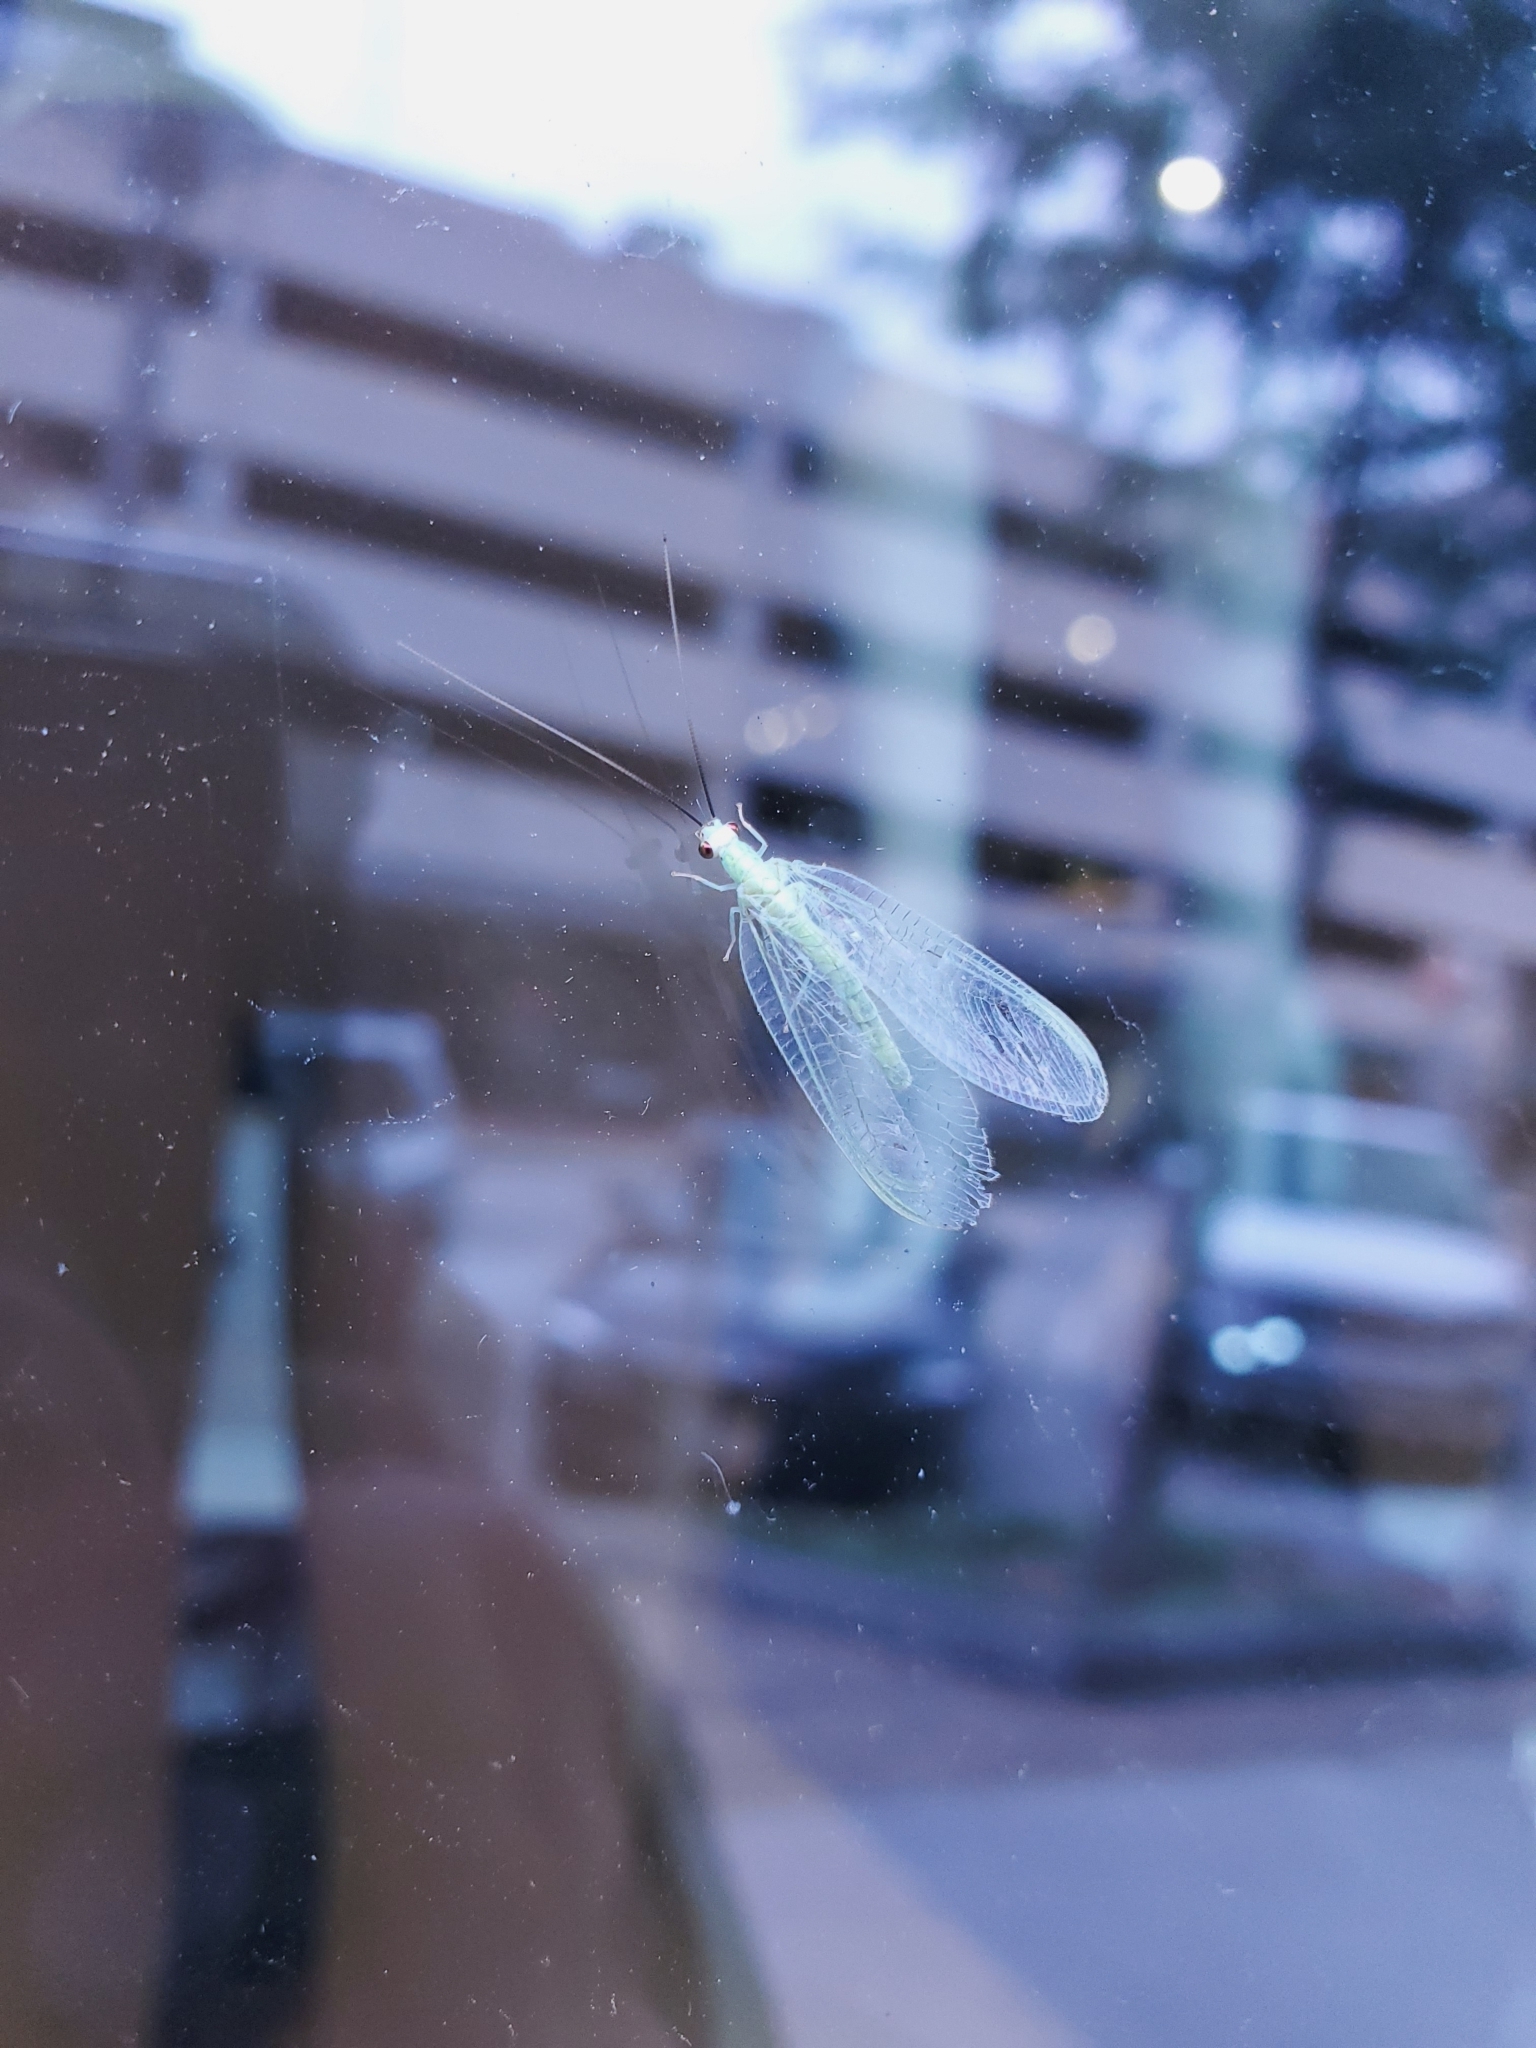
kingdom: Animalia
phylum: Arthropoda
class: Insecta
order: Neuroptera
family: Chrysopidae
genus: Chrysopa
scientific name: Chrysopa nigricornis
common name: Black-horned green lacewing
